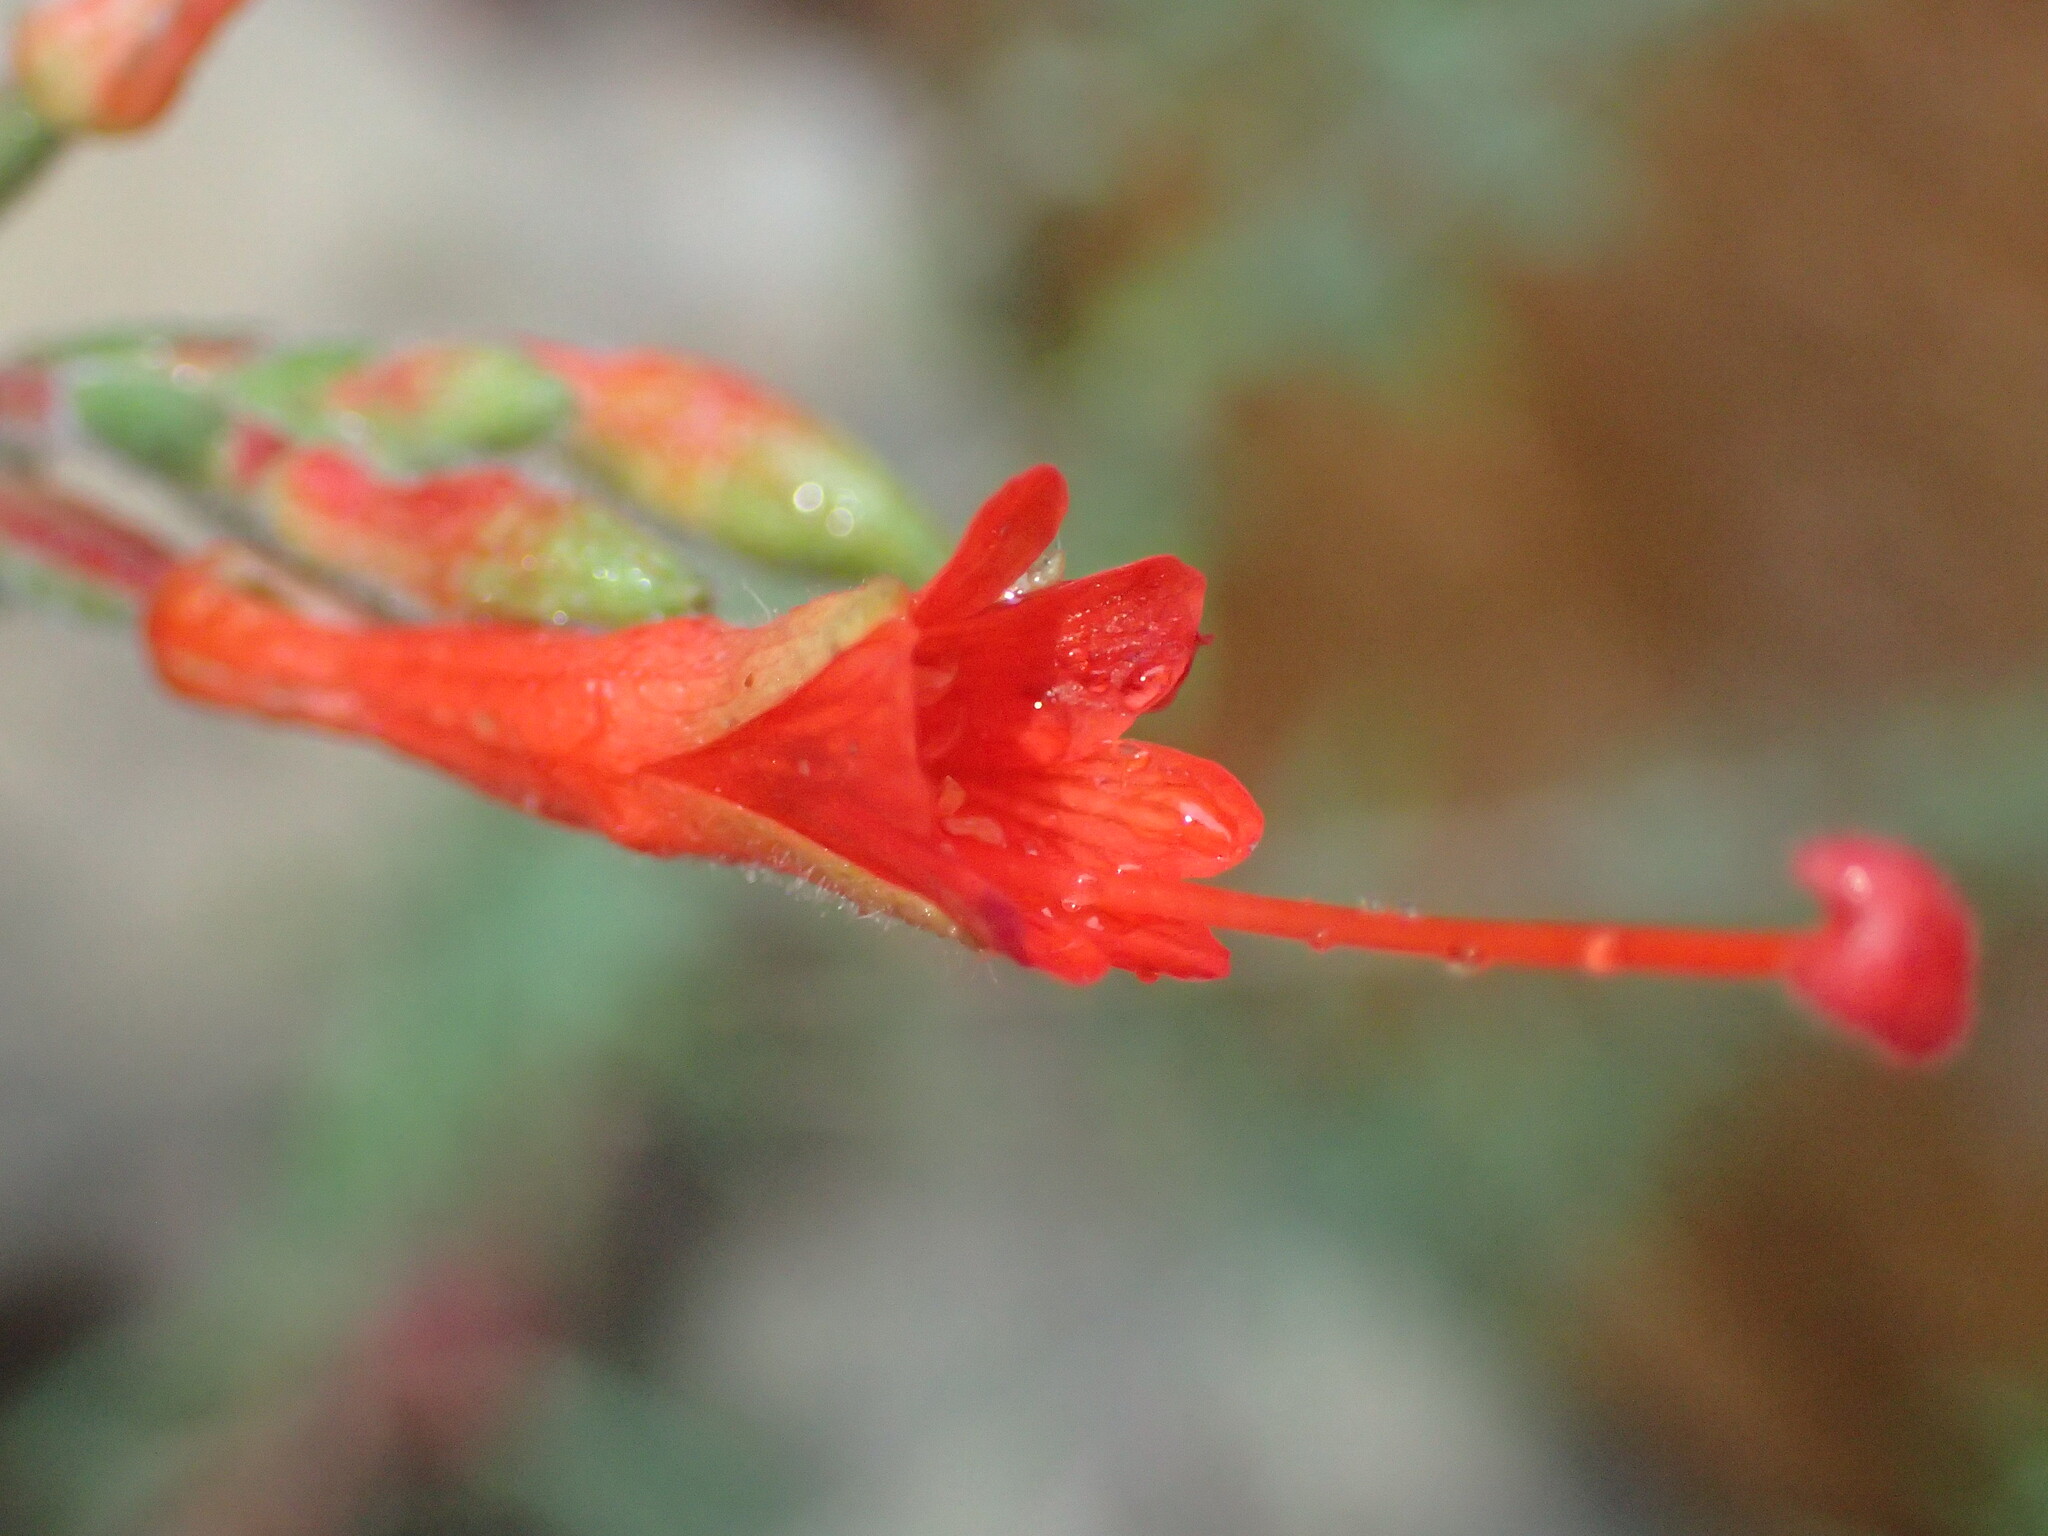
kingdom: Plantae
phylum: Tracheophyta
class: Magnoliopsida
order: Myrtales
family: Onagraceae
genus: Epilobium
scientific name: Epilobium canum
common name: California-fuchsia
